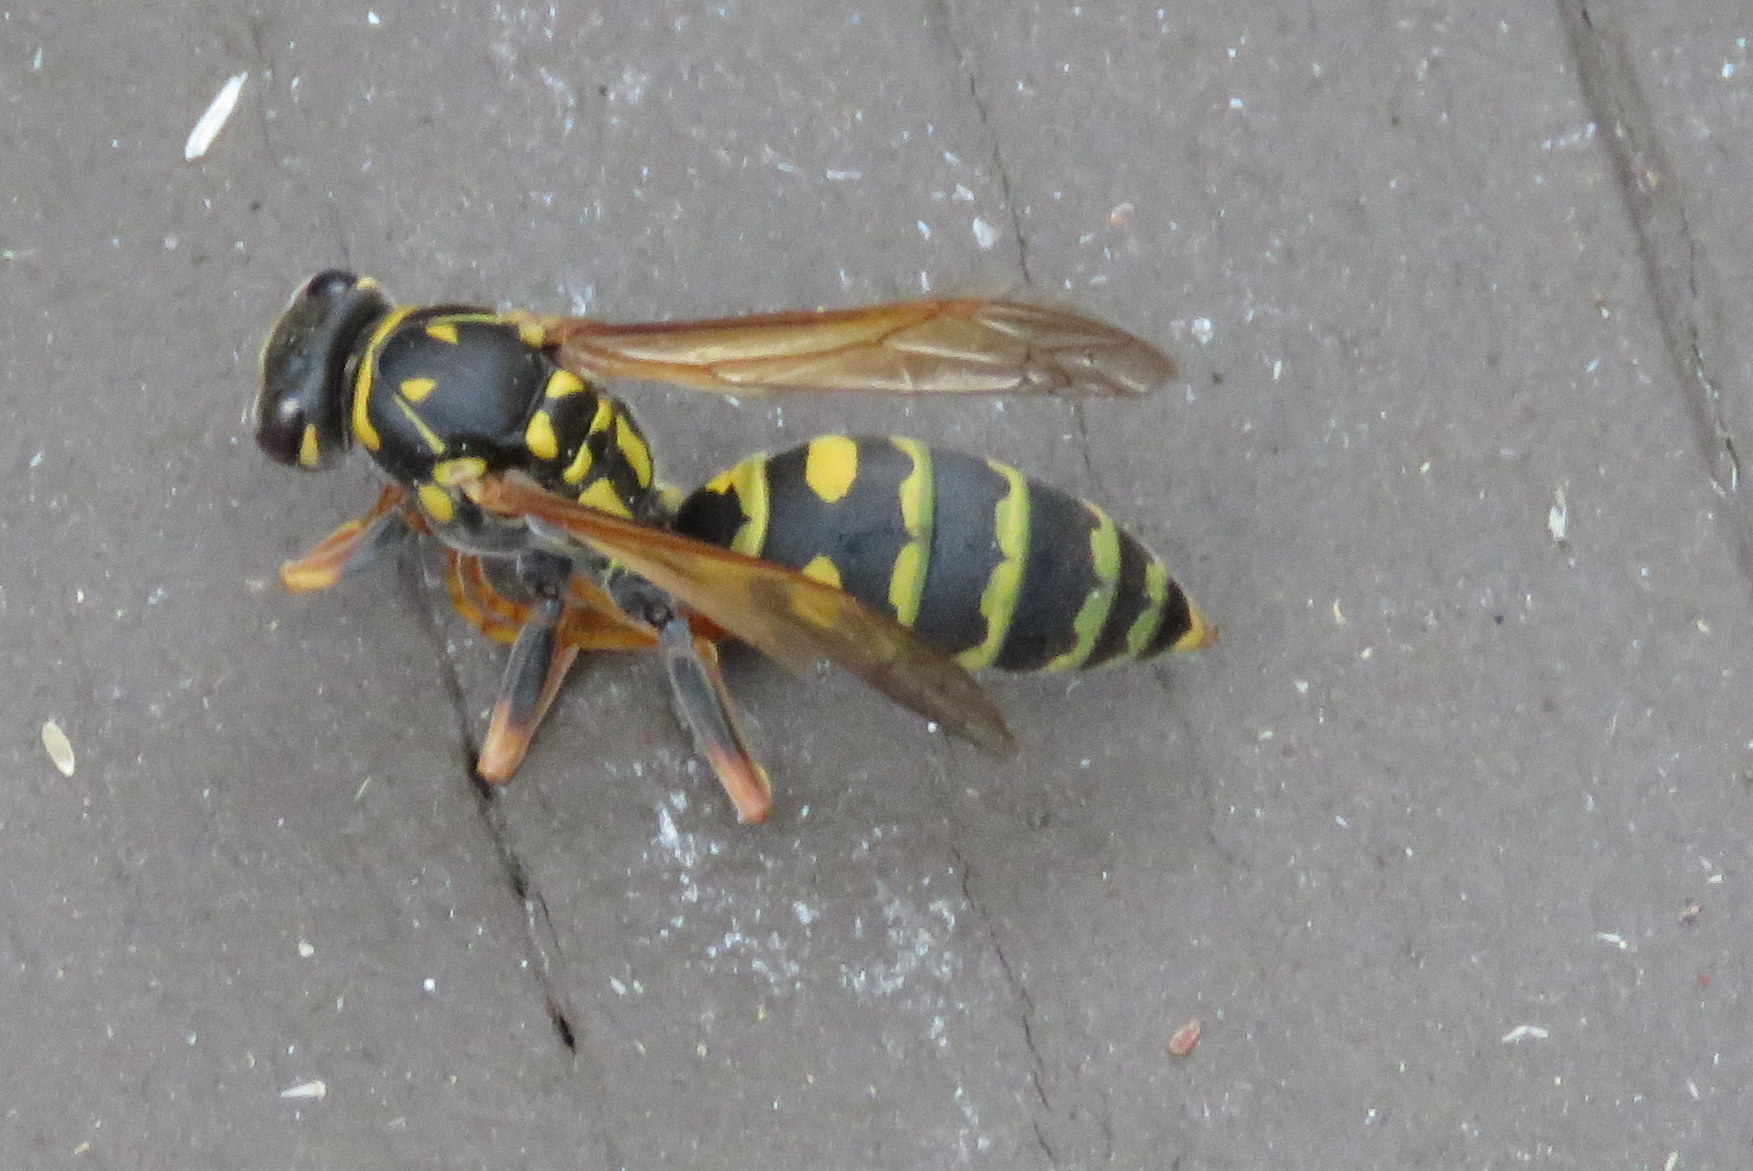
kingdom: Animalia
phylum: Arthropoda
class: Insecta
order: Hymenoptera
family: Eumenidae
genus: Polistes
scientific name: Polistes dominula
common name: Paper wasp
